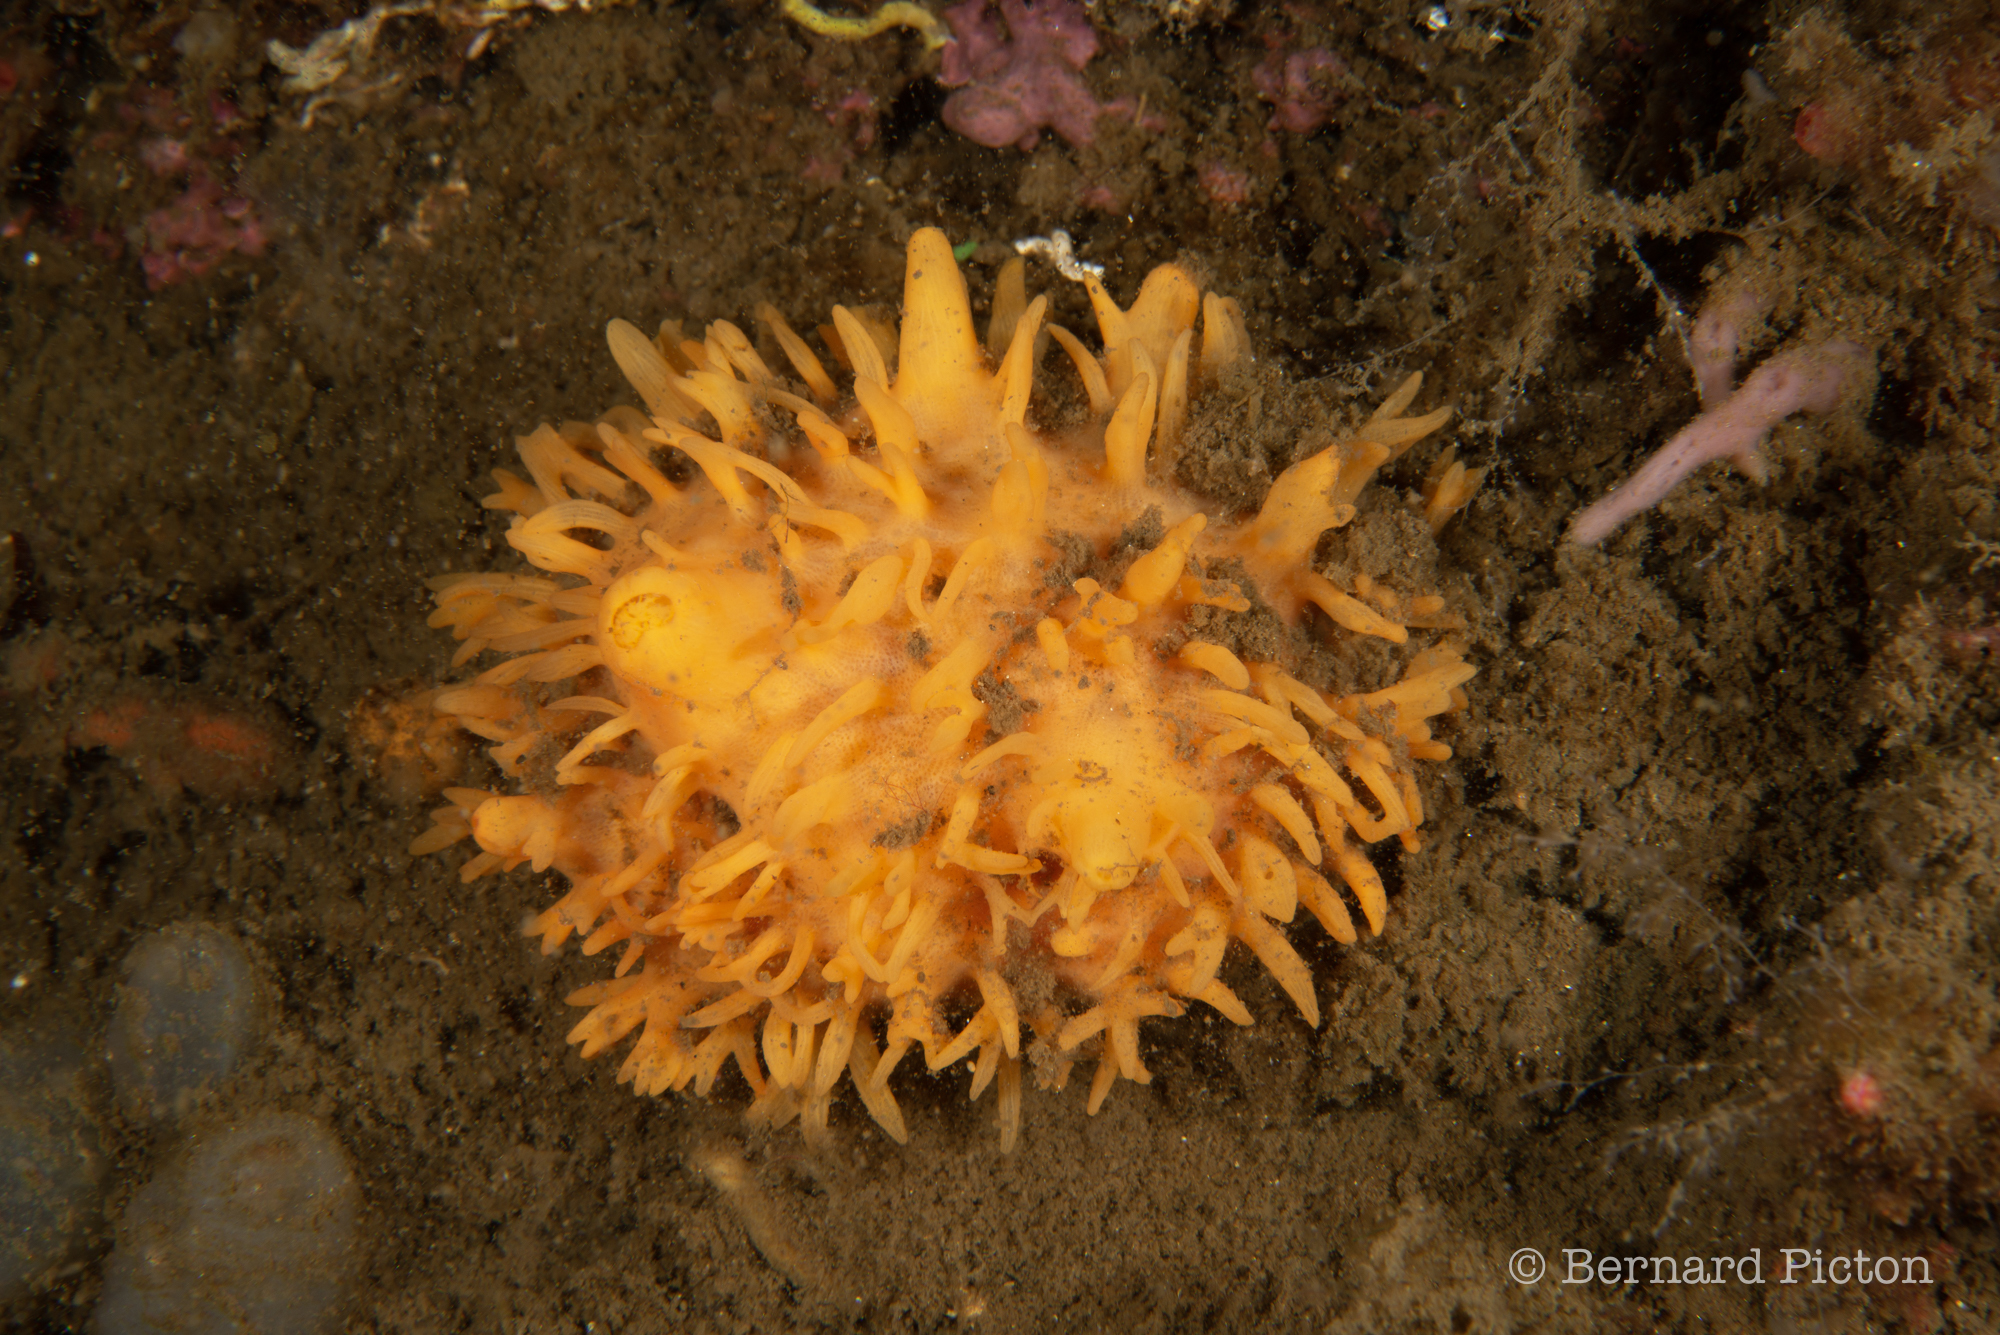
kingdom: Animalia
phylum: Porifera
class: Demospongiae
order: Polymastiida
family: Polymastiidae
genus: Polymastia
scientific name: Polymastia boletiformis
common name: Massive horny sponge
